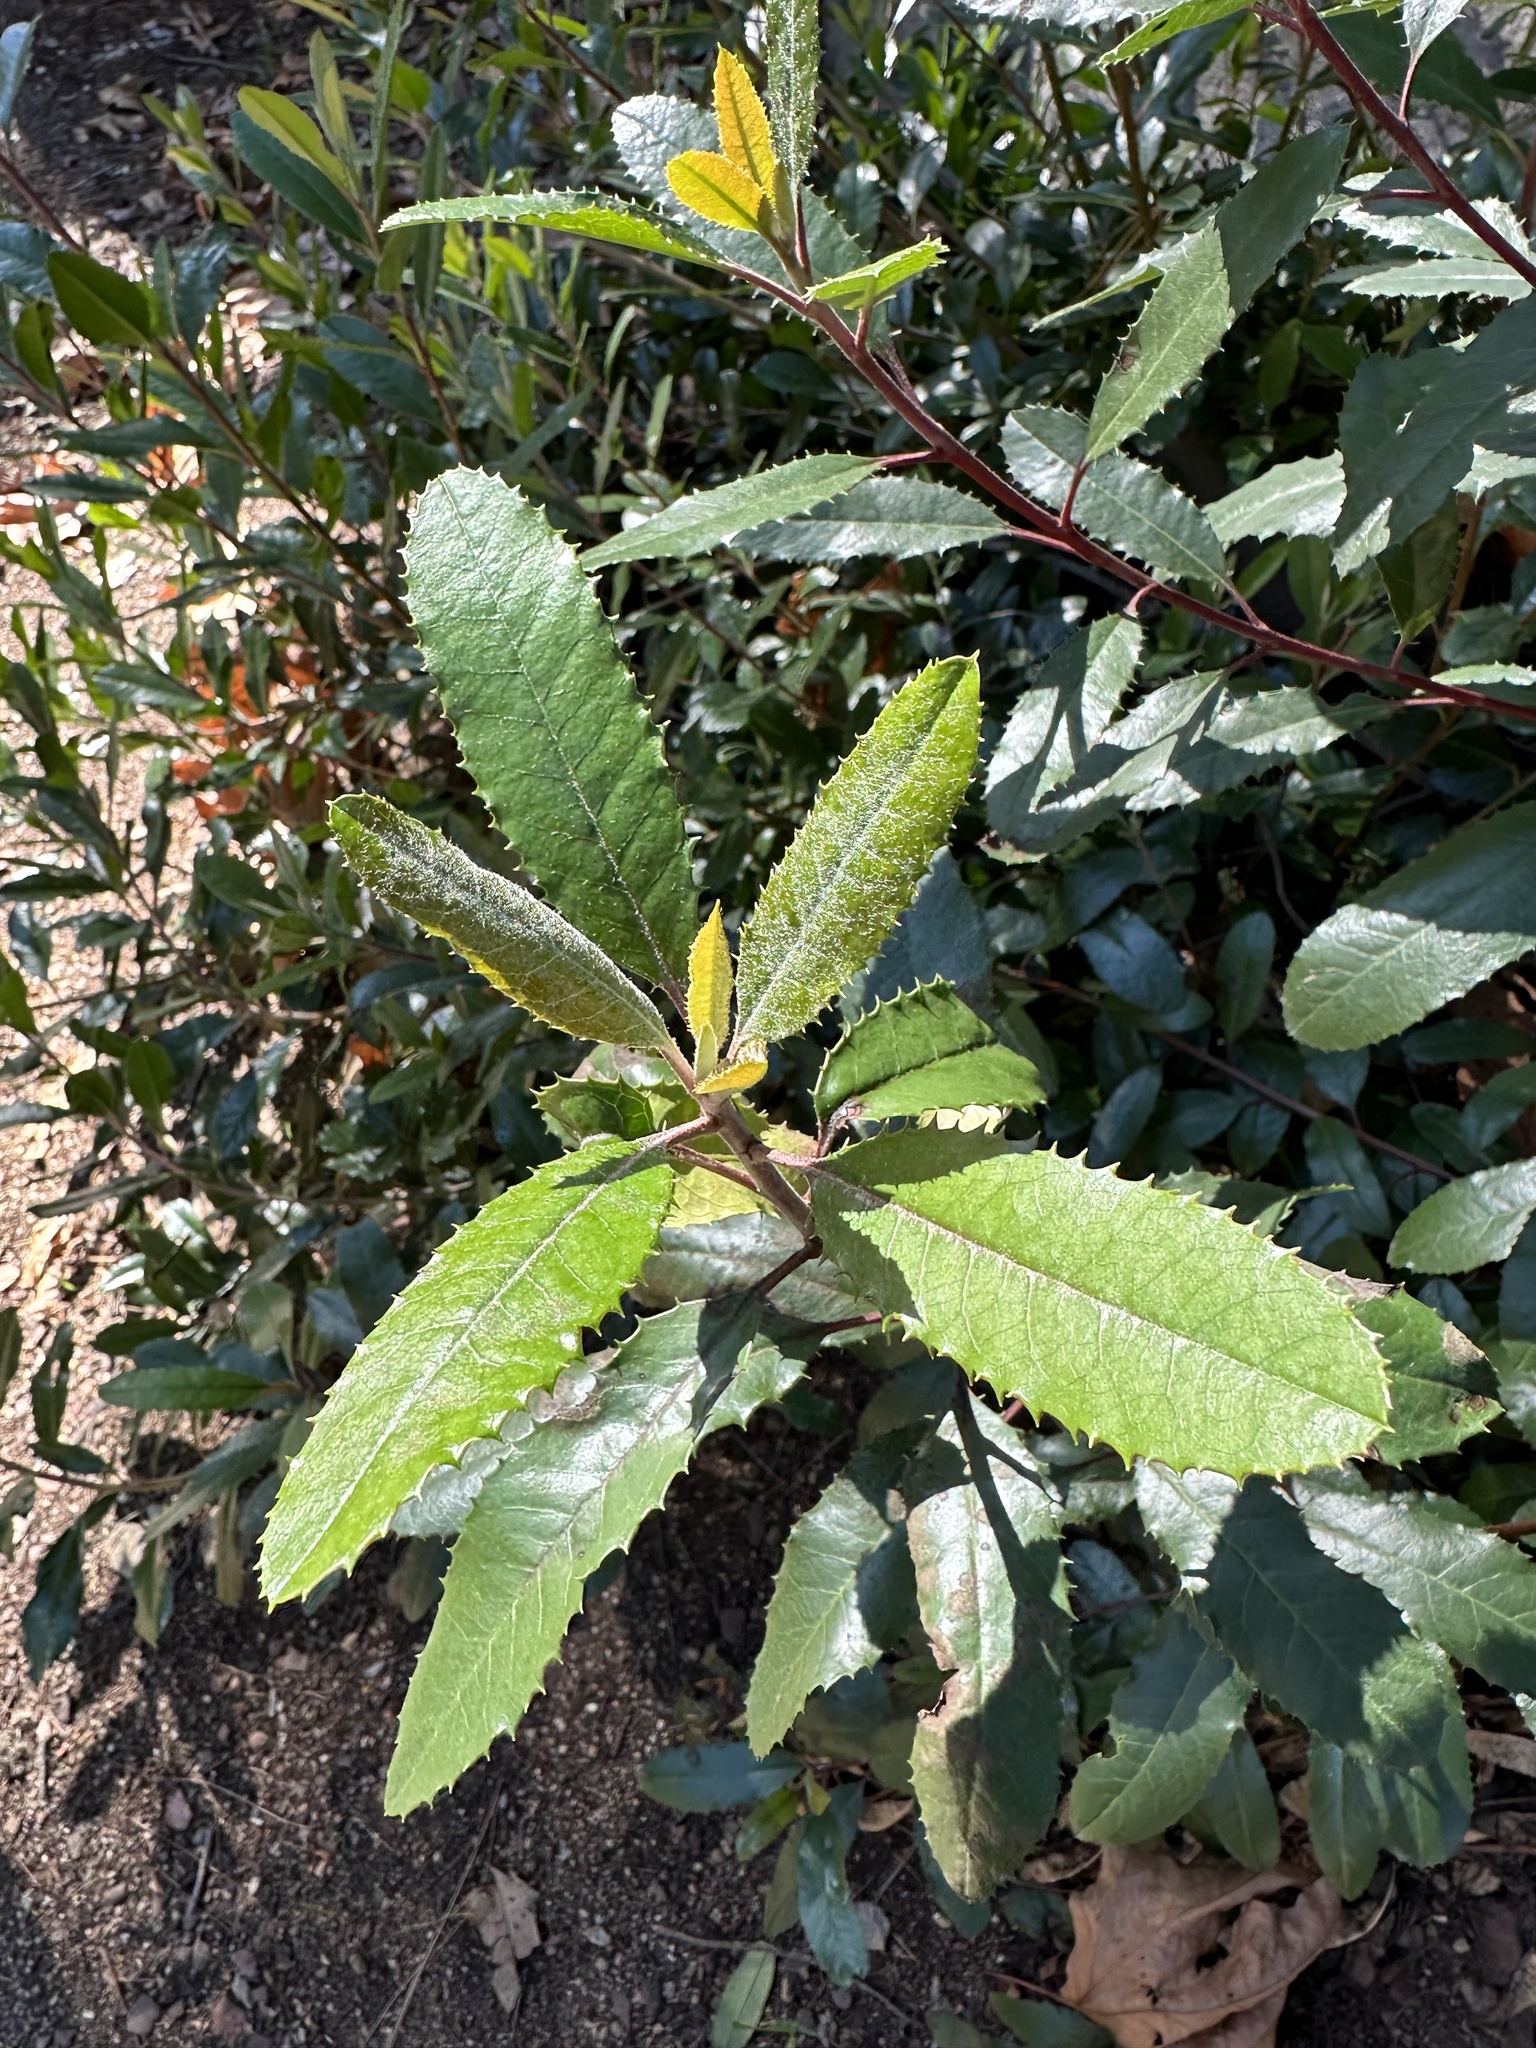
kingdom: Plantae
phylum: Tracheophyta
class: Magnoliopsida
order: Rosales
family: Rosaceae
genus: Heteromeles
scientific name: Heteromeles arbutifolia
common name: California-holly
